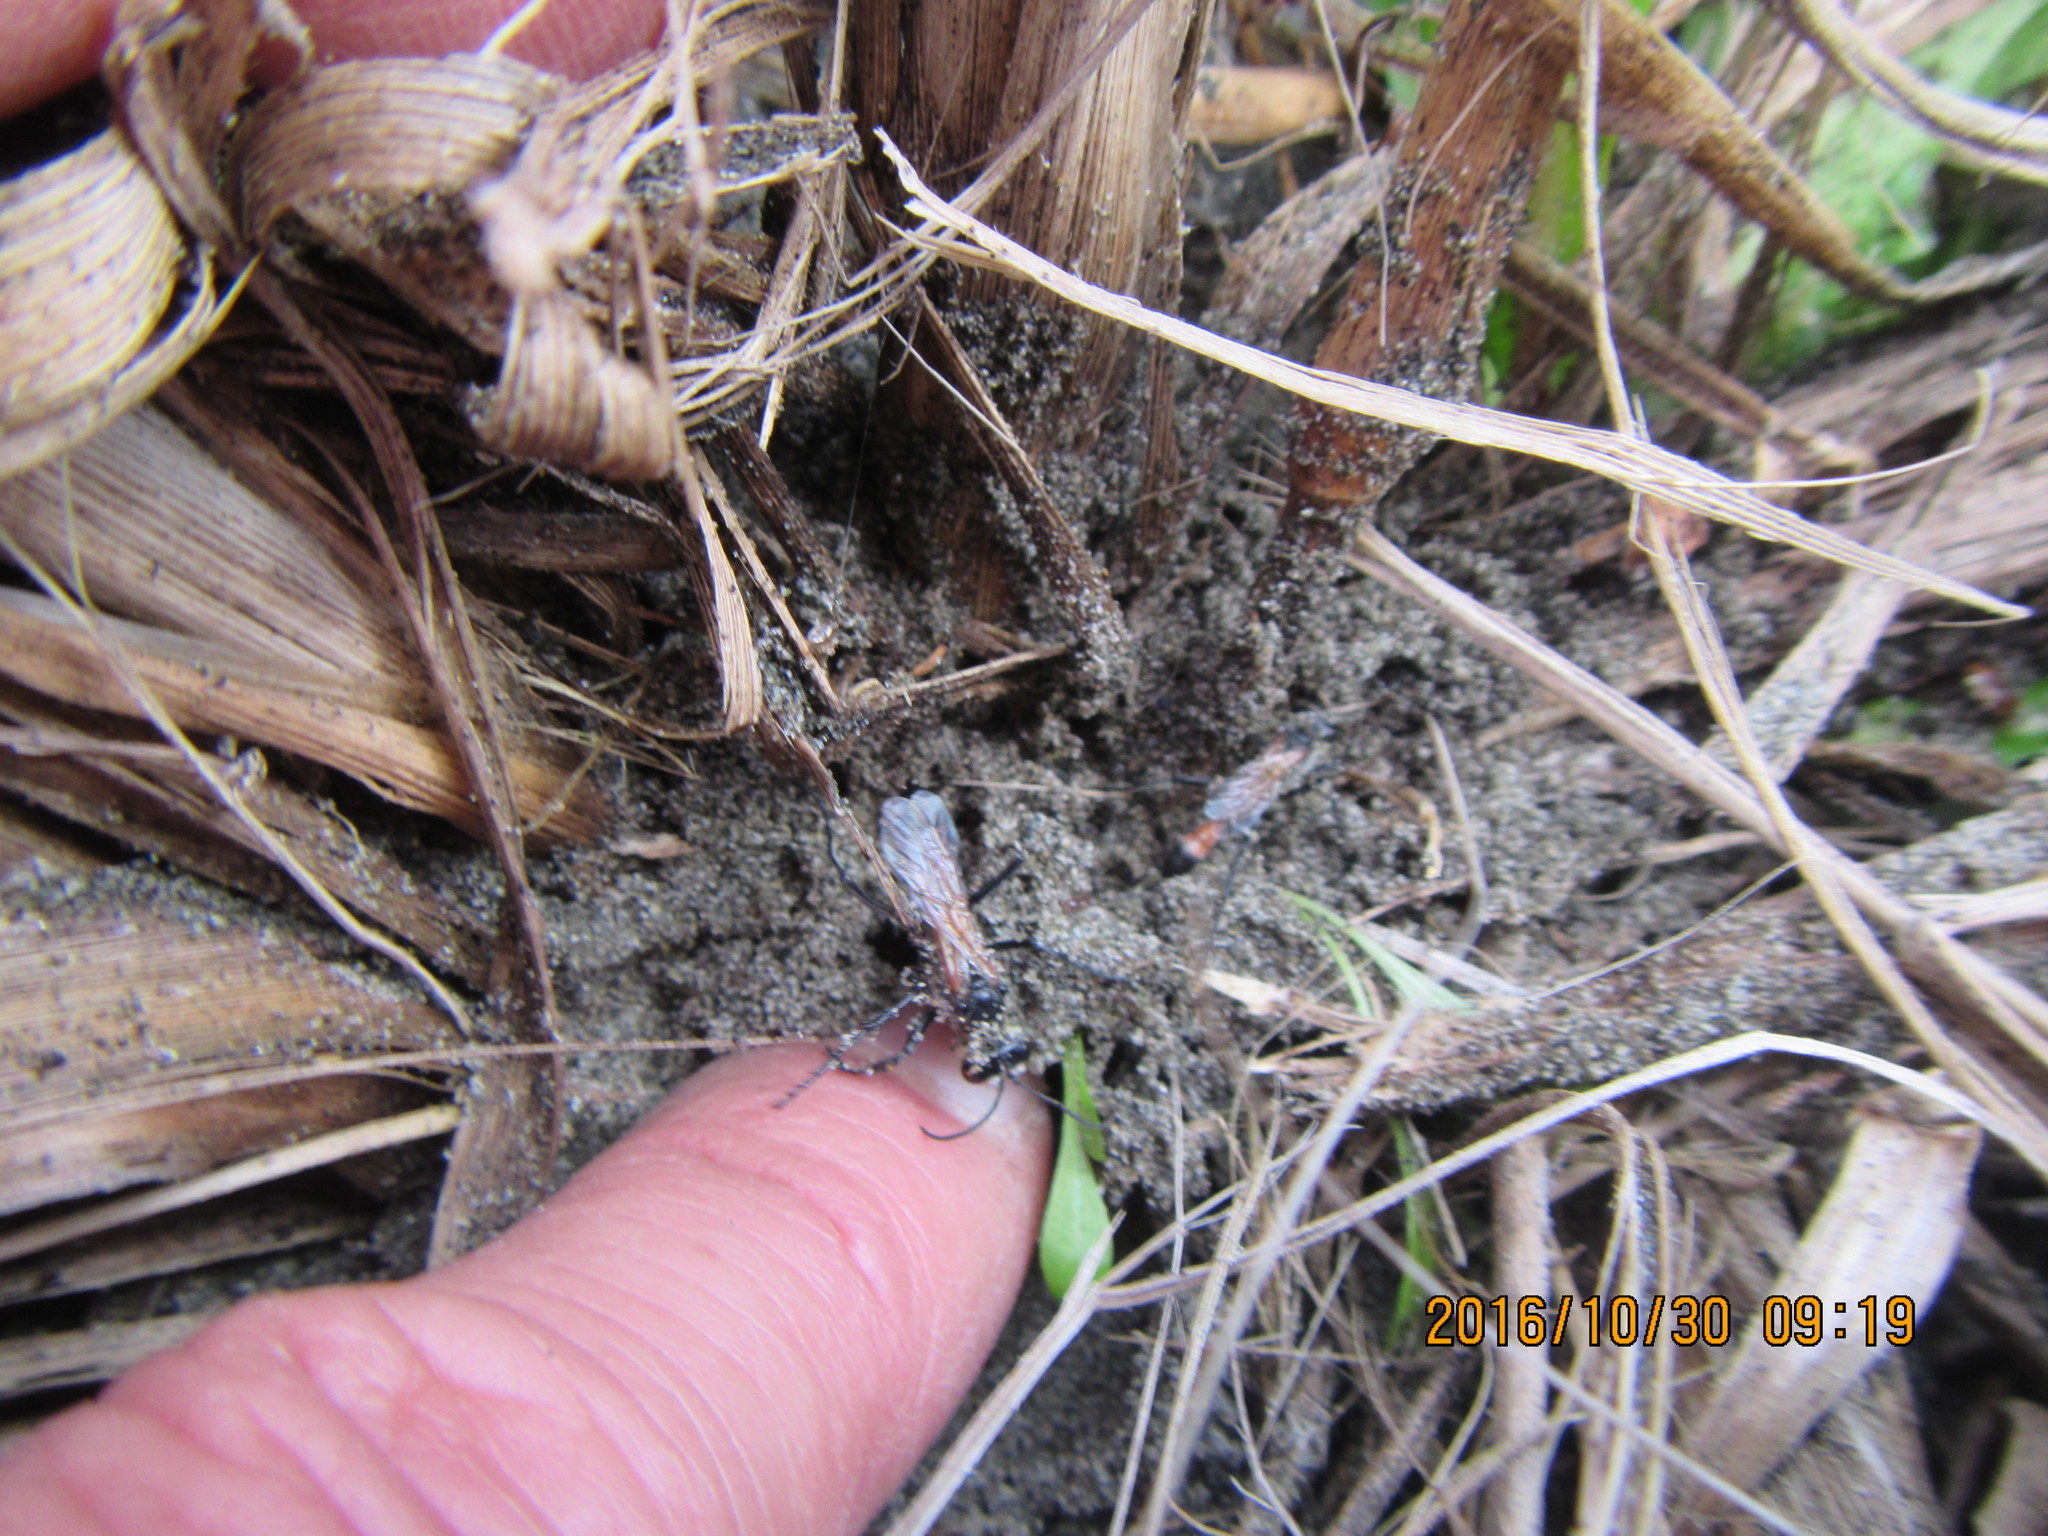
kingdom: Animalia
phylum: Arthropoda
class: Insecta
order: Hymenoptera
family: Sphecidae
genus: Podalonia
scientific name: Podalonia tydei
